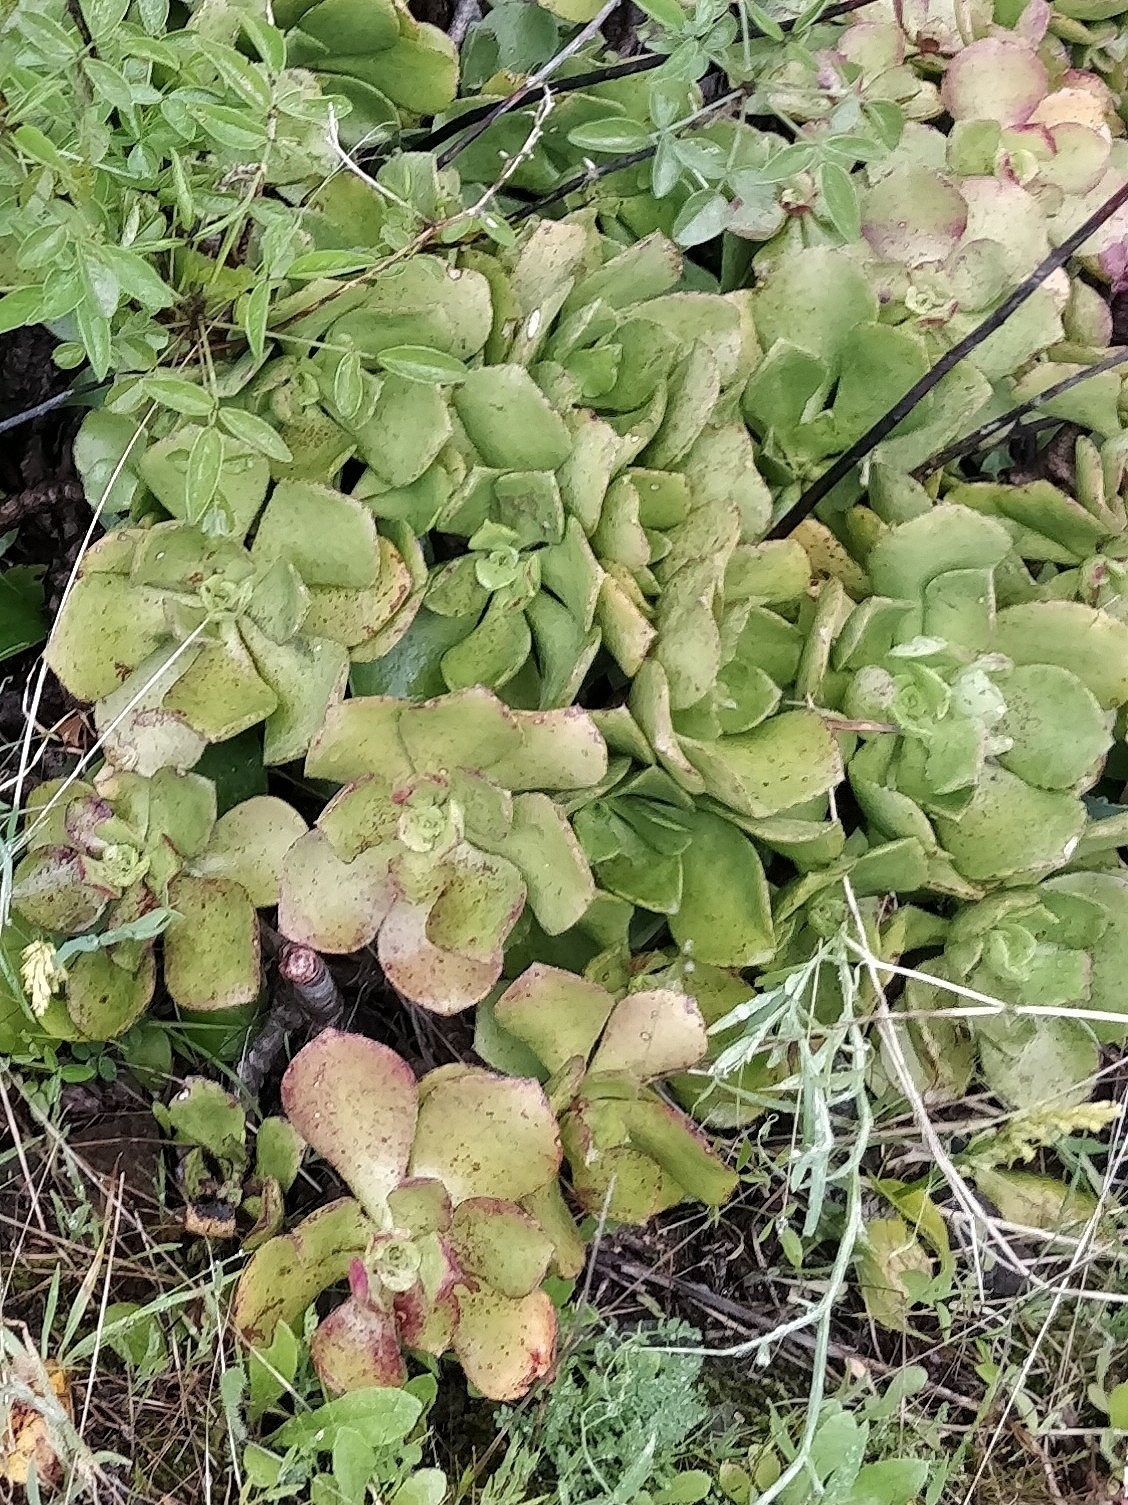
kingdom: Plantae
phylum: Tracheophyta
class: Magnoliopsida
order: Saxifragales
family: Crassulaceae
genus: Aeonium
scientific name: Aeonium glutinosum
